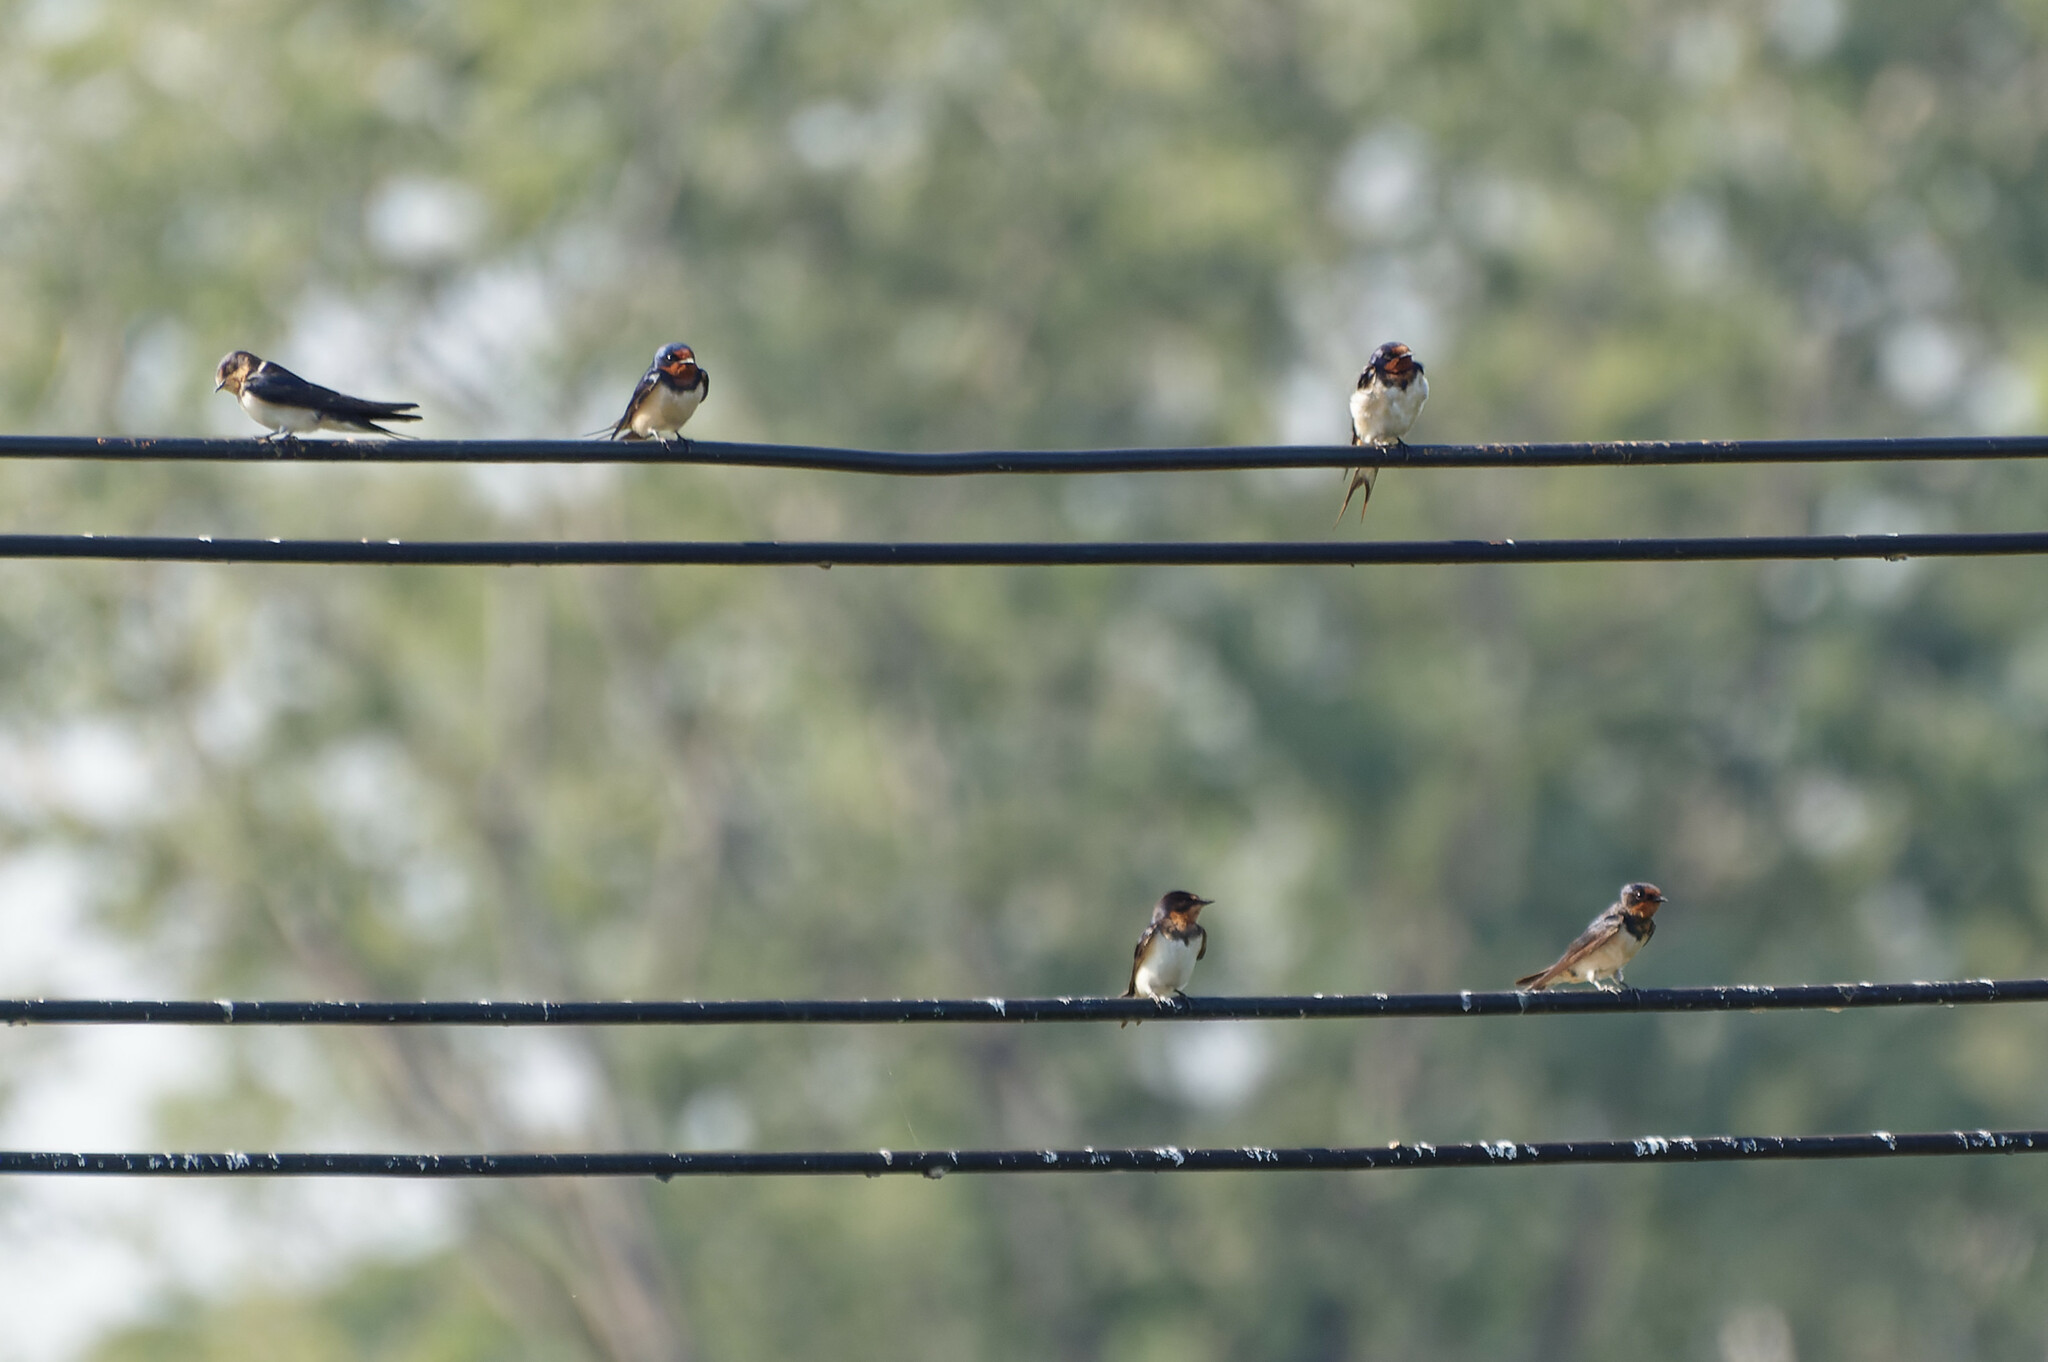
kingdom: Animalia
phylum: Chordata
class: Aves
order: Passeriformes
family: Hirundinidae
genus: Hirundo
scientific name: Hirundo rustica
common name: Barn swallow
